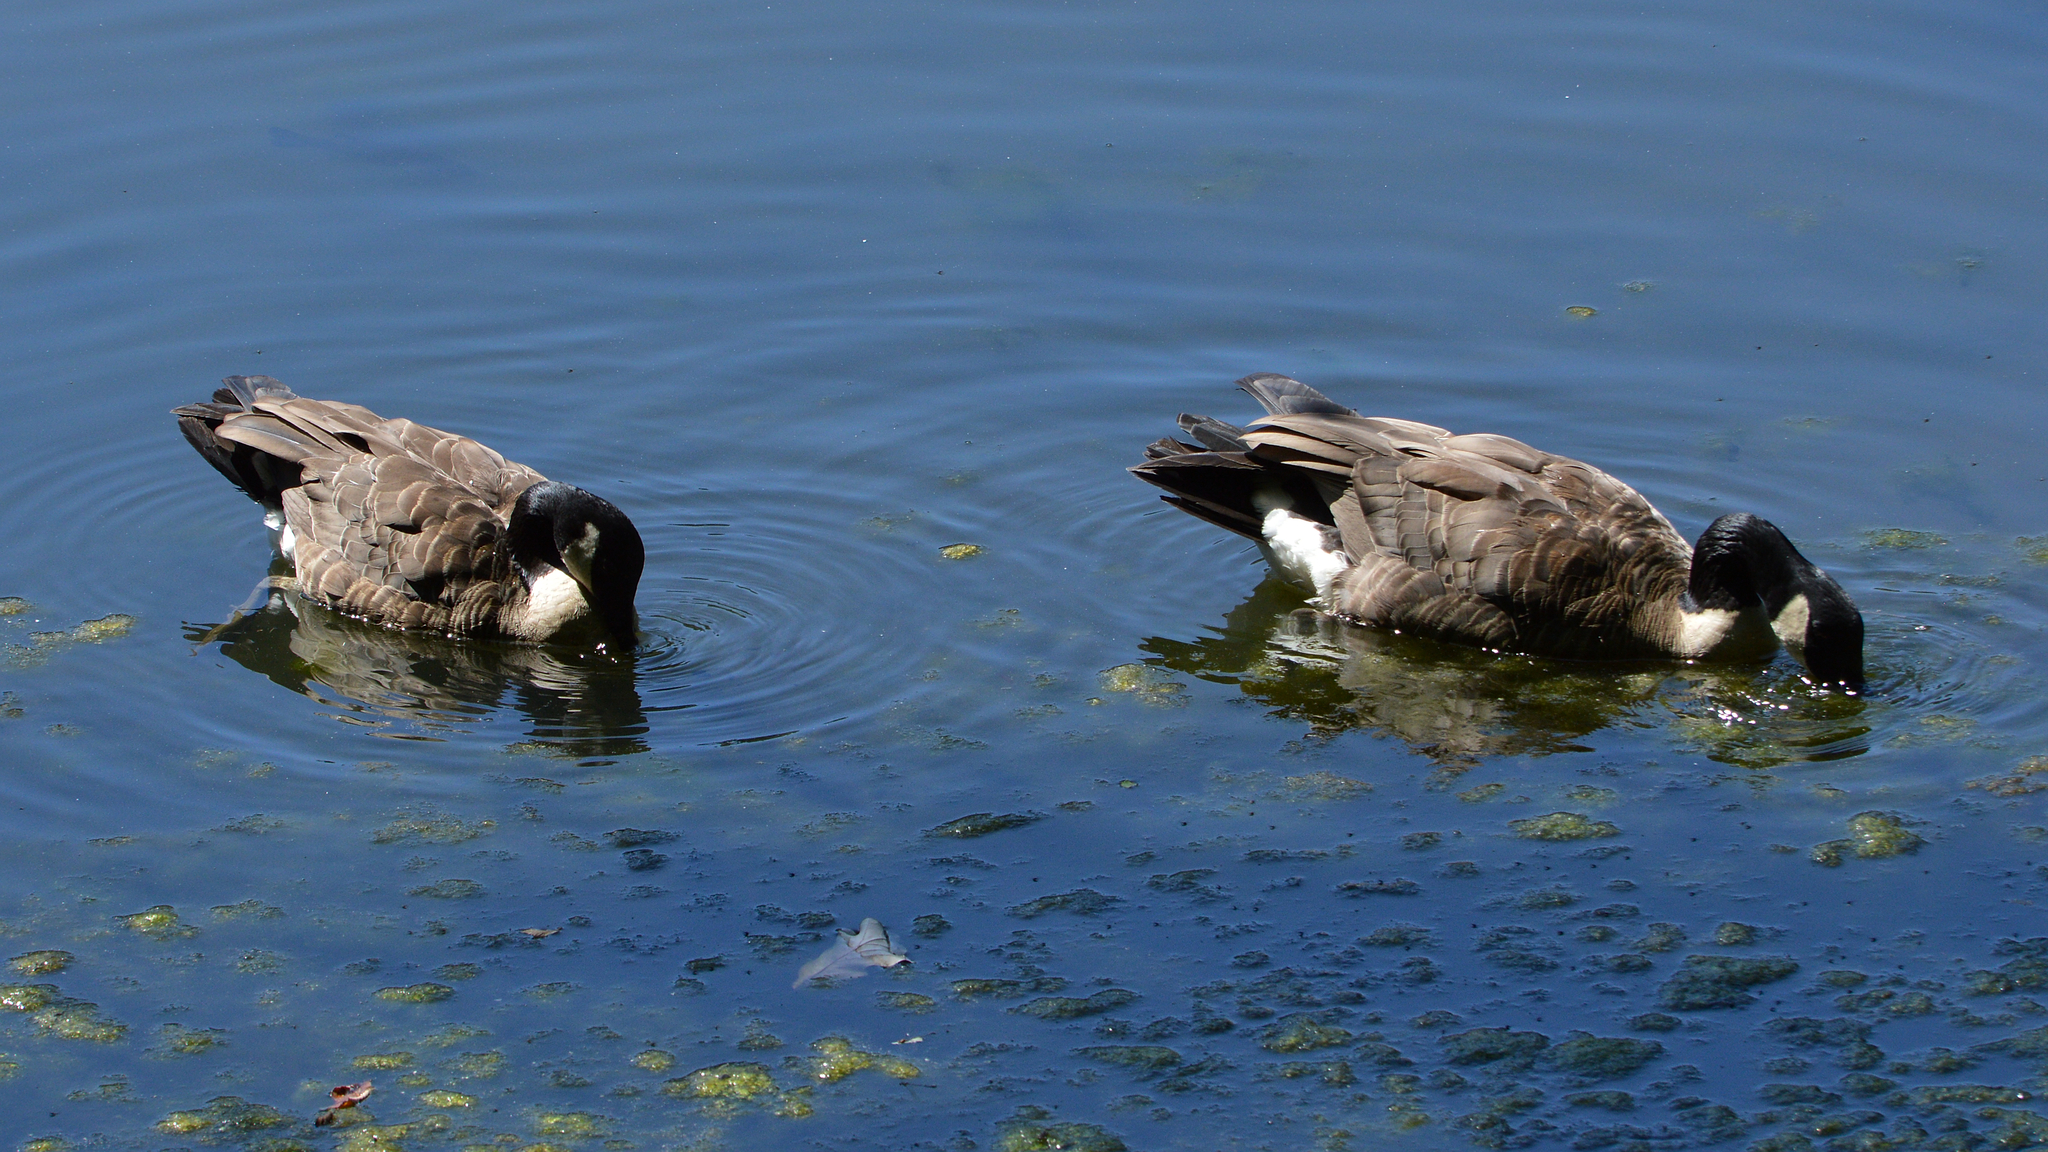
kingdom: Animalia
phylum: Chordata
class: Aves
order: Anseriformes
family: Anatidae
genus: Branta
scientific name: Branta canadensis
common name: Canada goose
